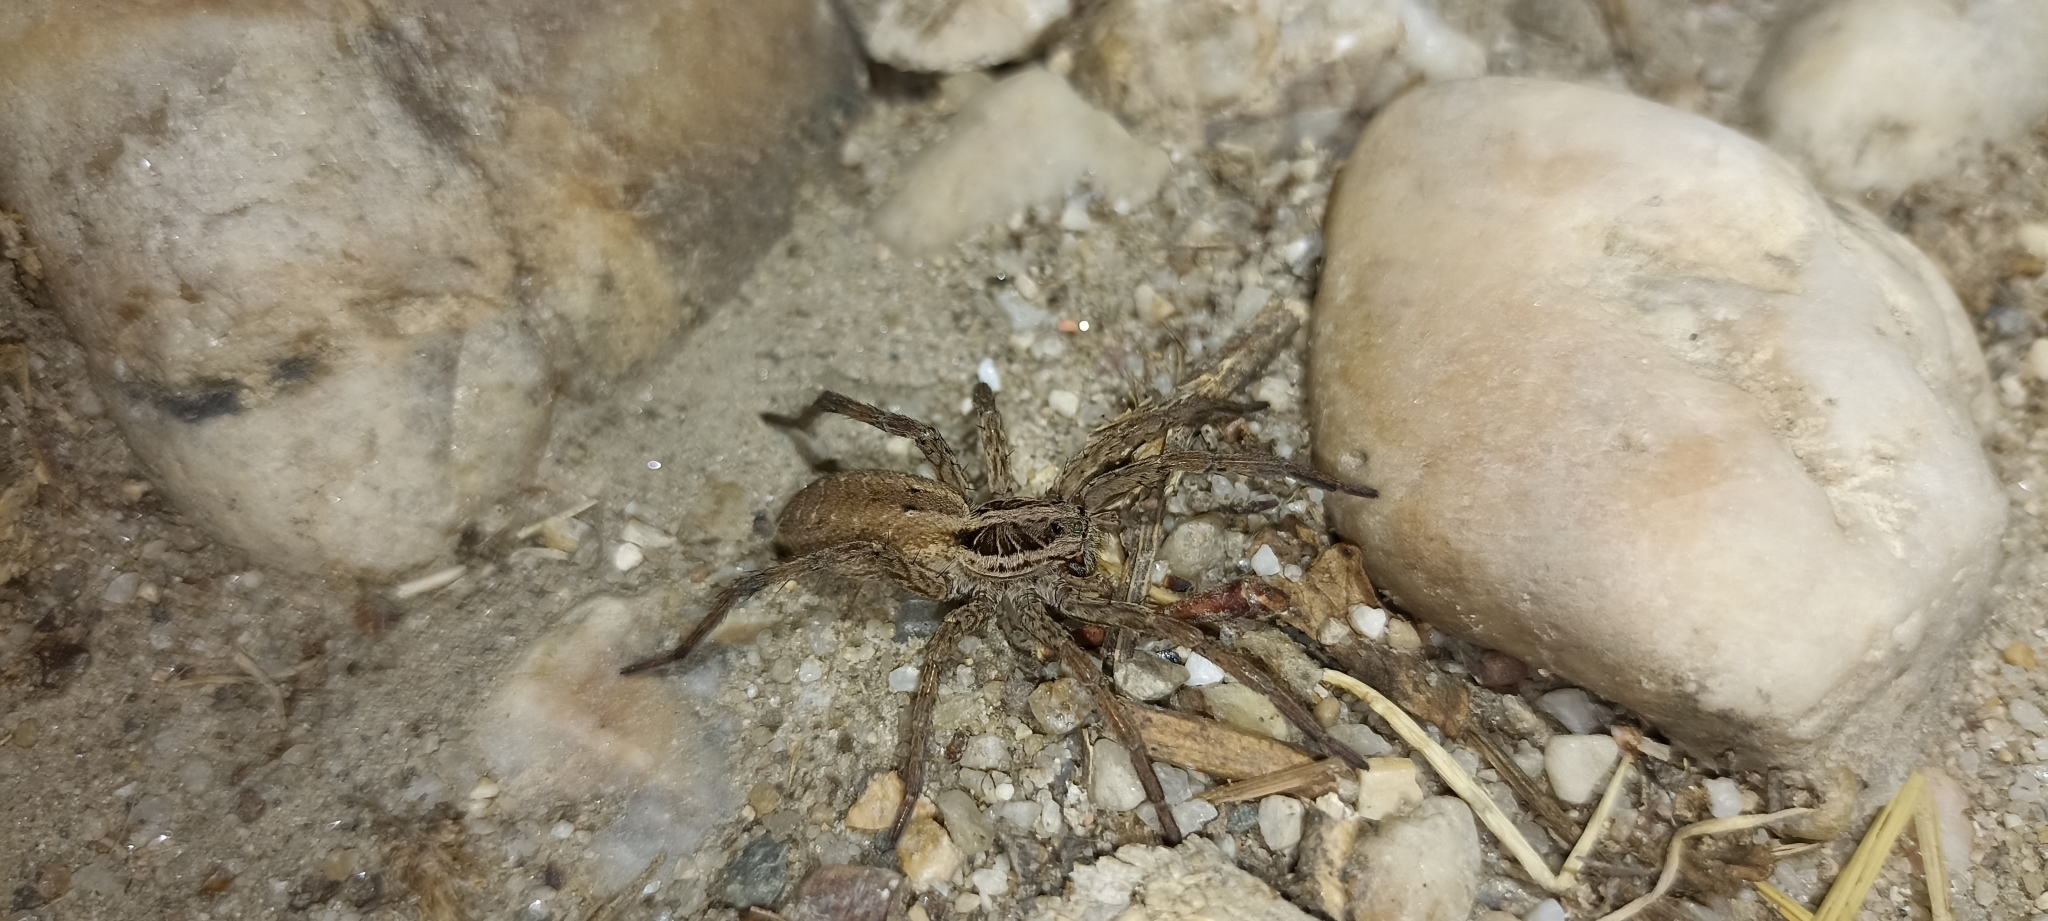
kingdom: Animalia
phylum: Arthropoda
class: Arachnida
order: Araneae
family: Lycosidae
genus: Hogna
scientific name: Hogna radiata
